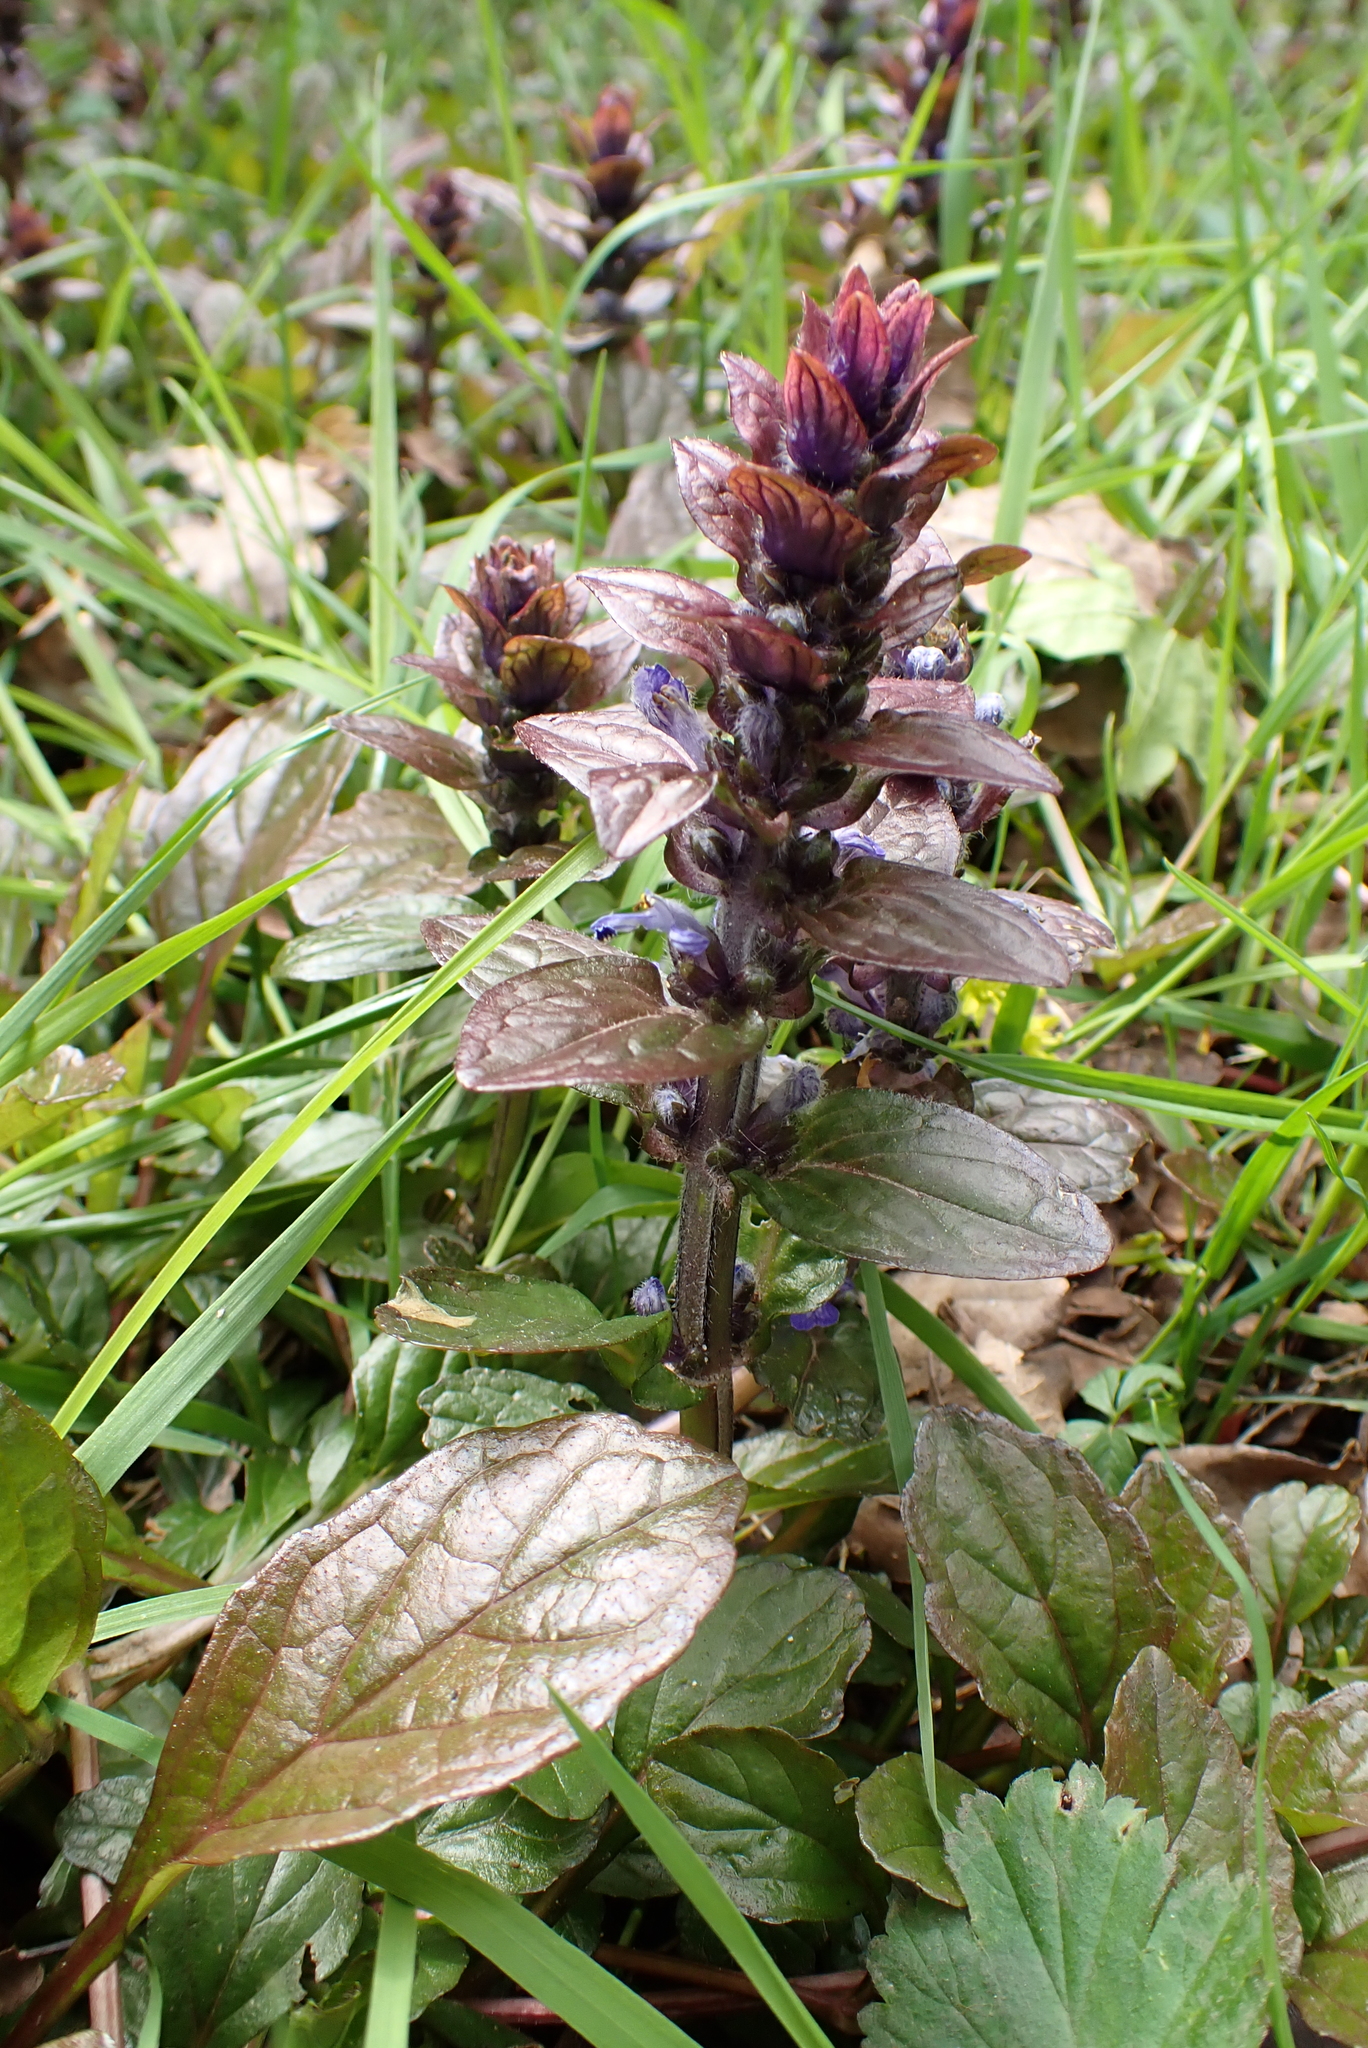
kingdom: Plantae
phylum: Tracheophyta
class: Magnoliopsida
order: Lamiales
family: Lamiaceae
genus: Ajuga
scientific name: Ajuga reptans
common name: Bugle
